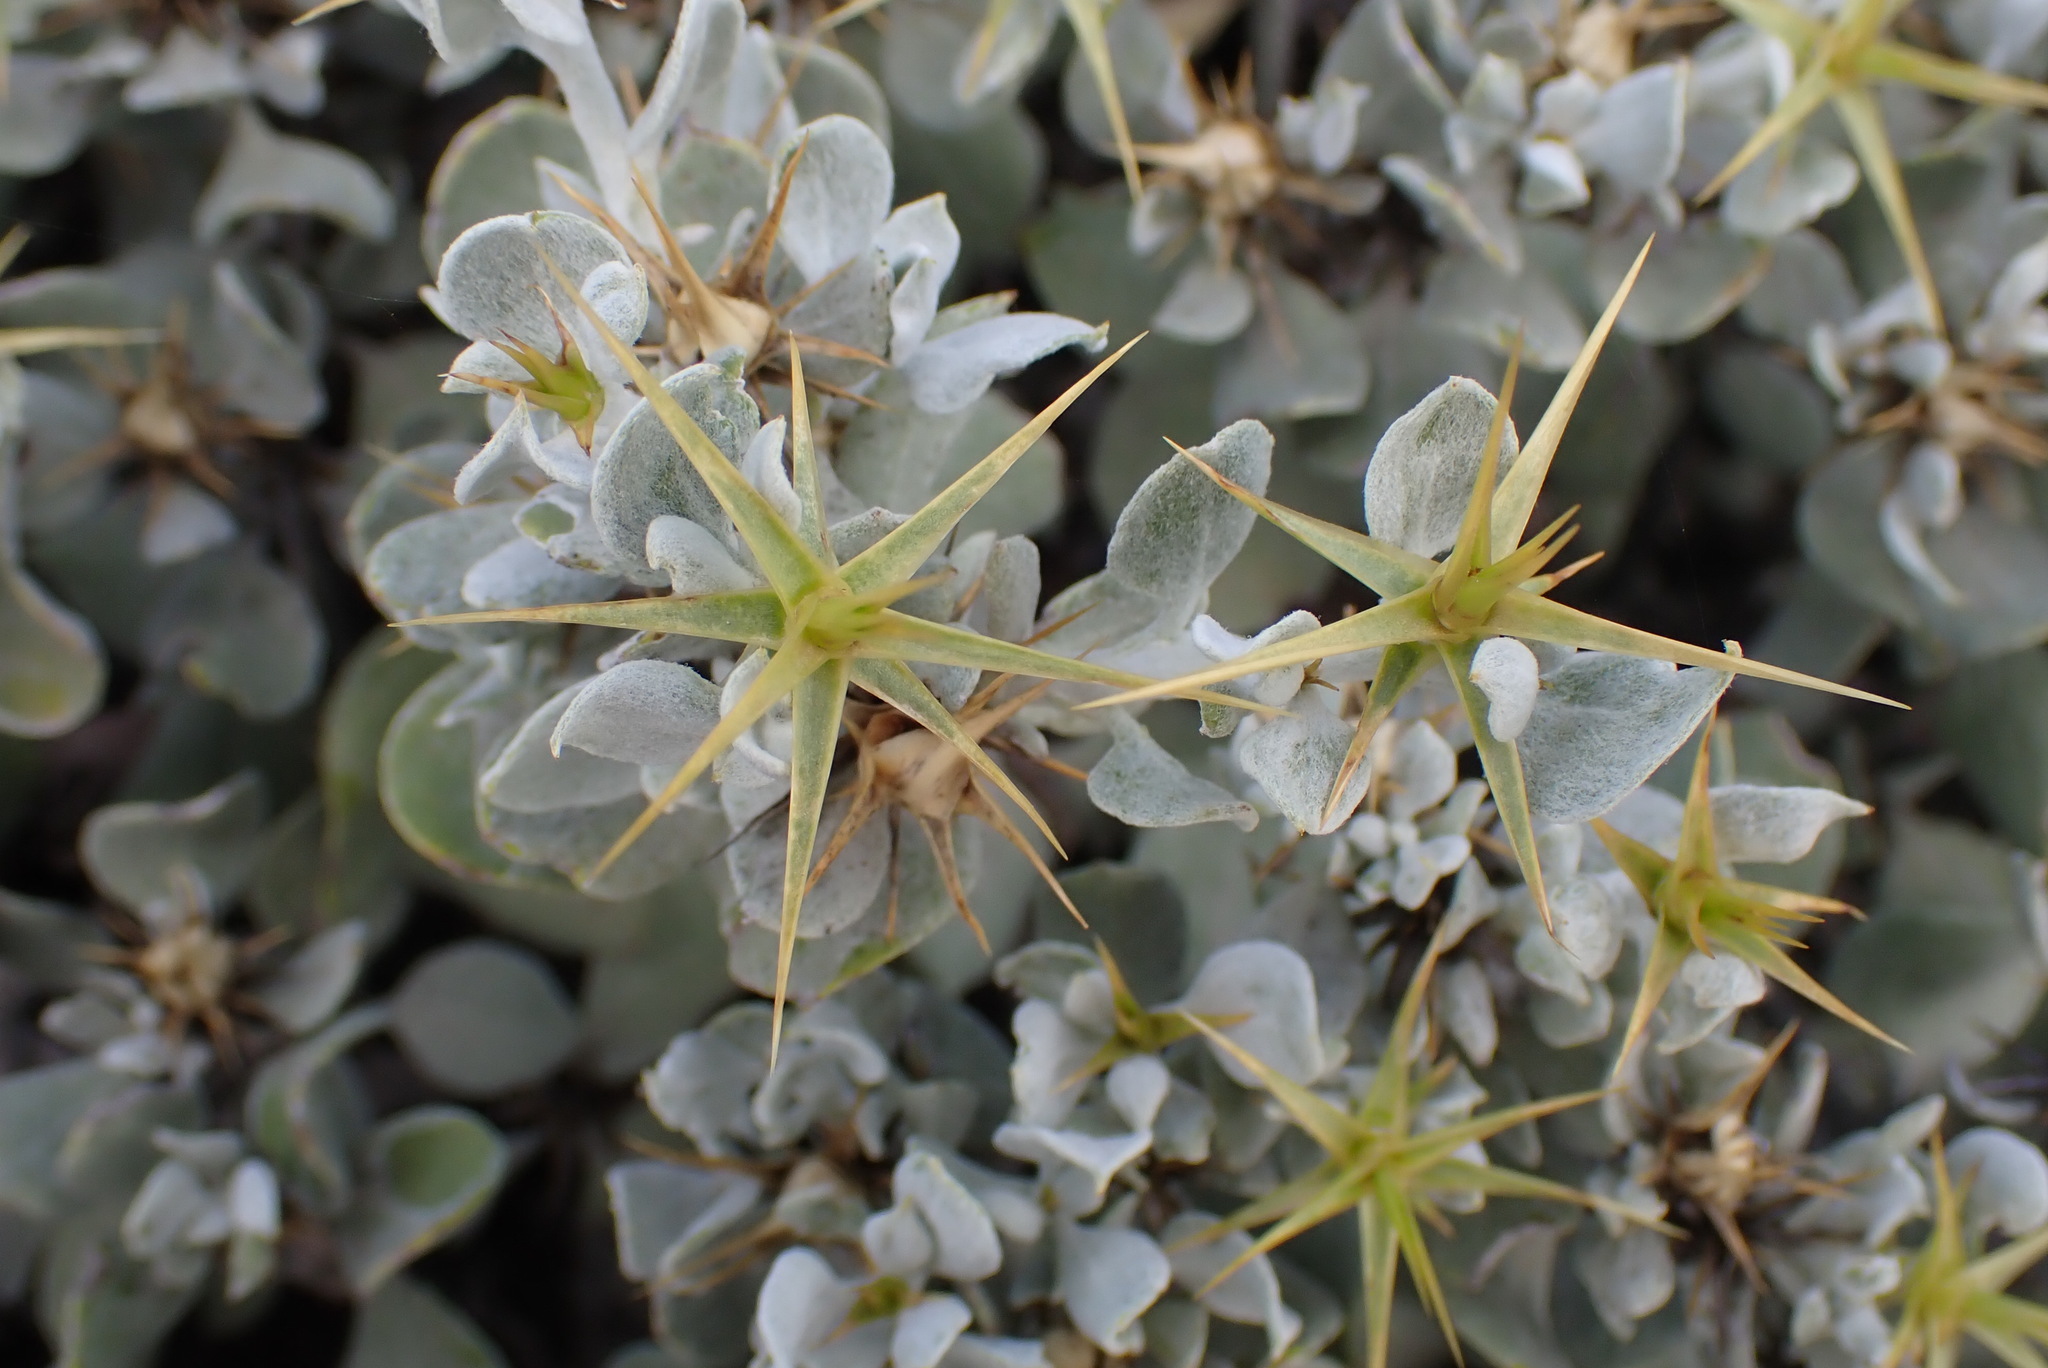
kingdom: Plantae
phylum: Tracheophyta
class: Magnoliopsida
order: Asterales
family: Asteraceae
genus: Macledium
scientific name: Macledium spinosum
